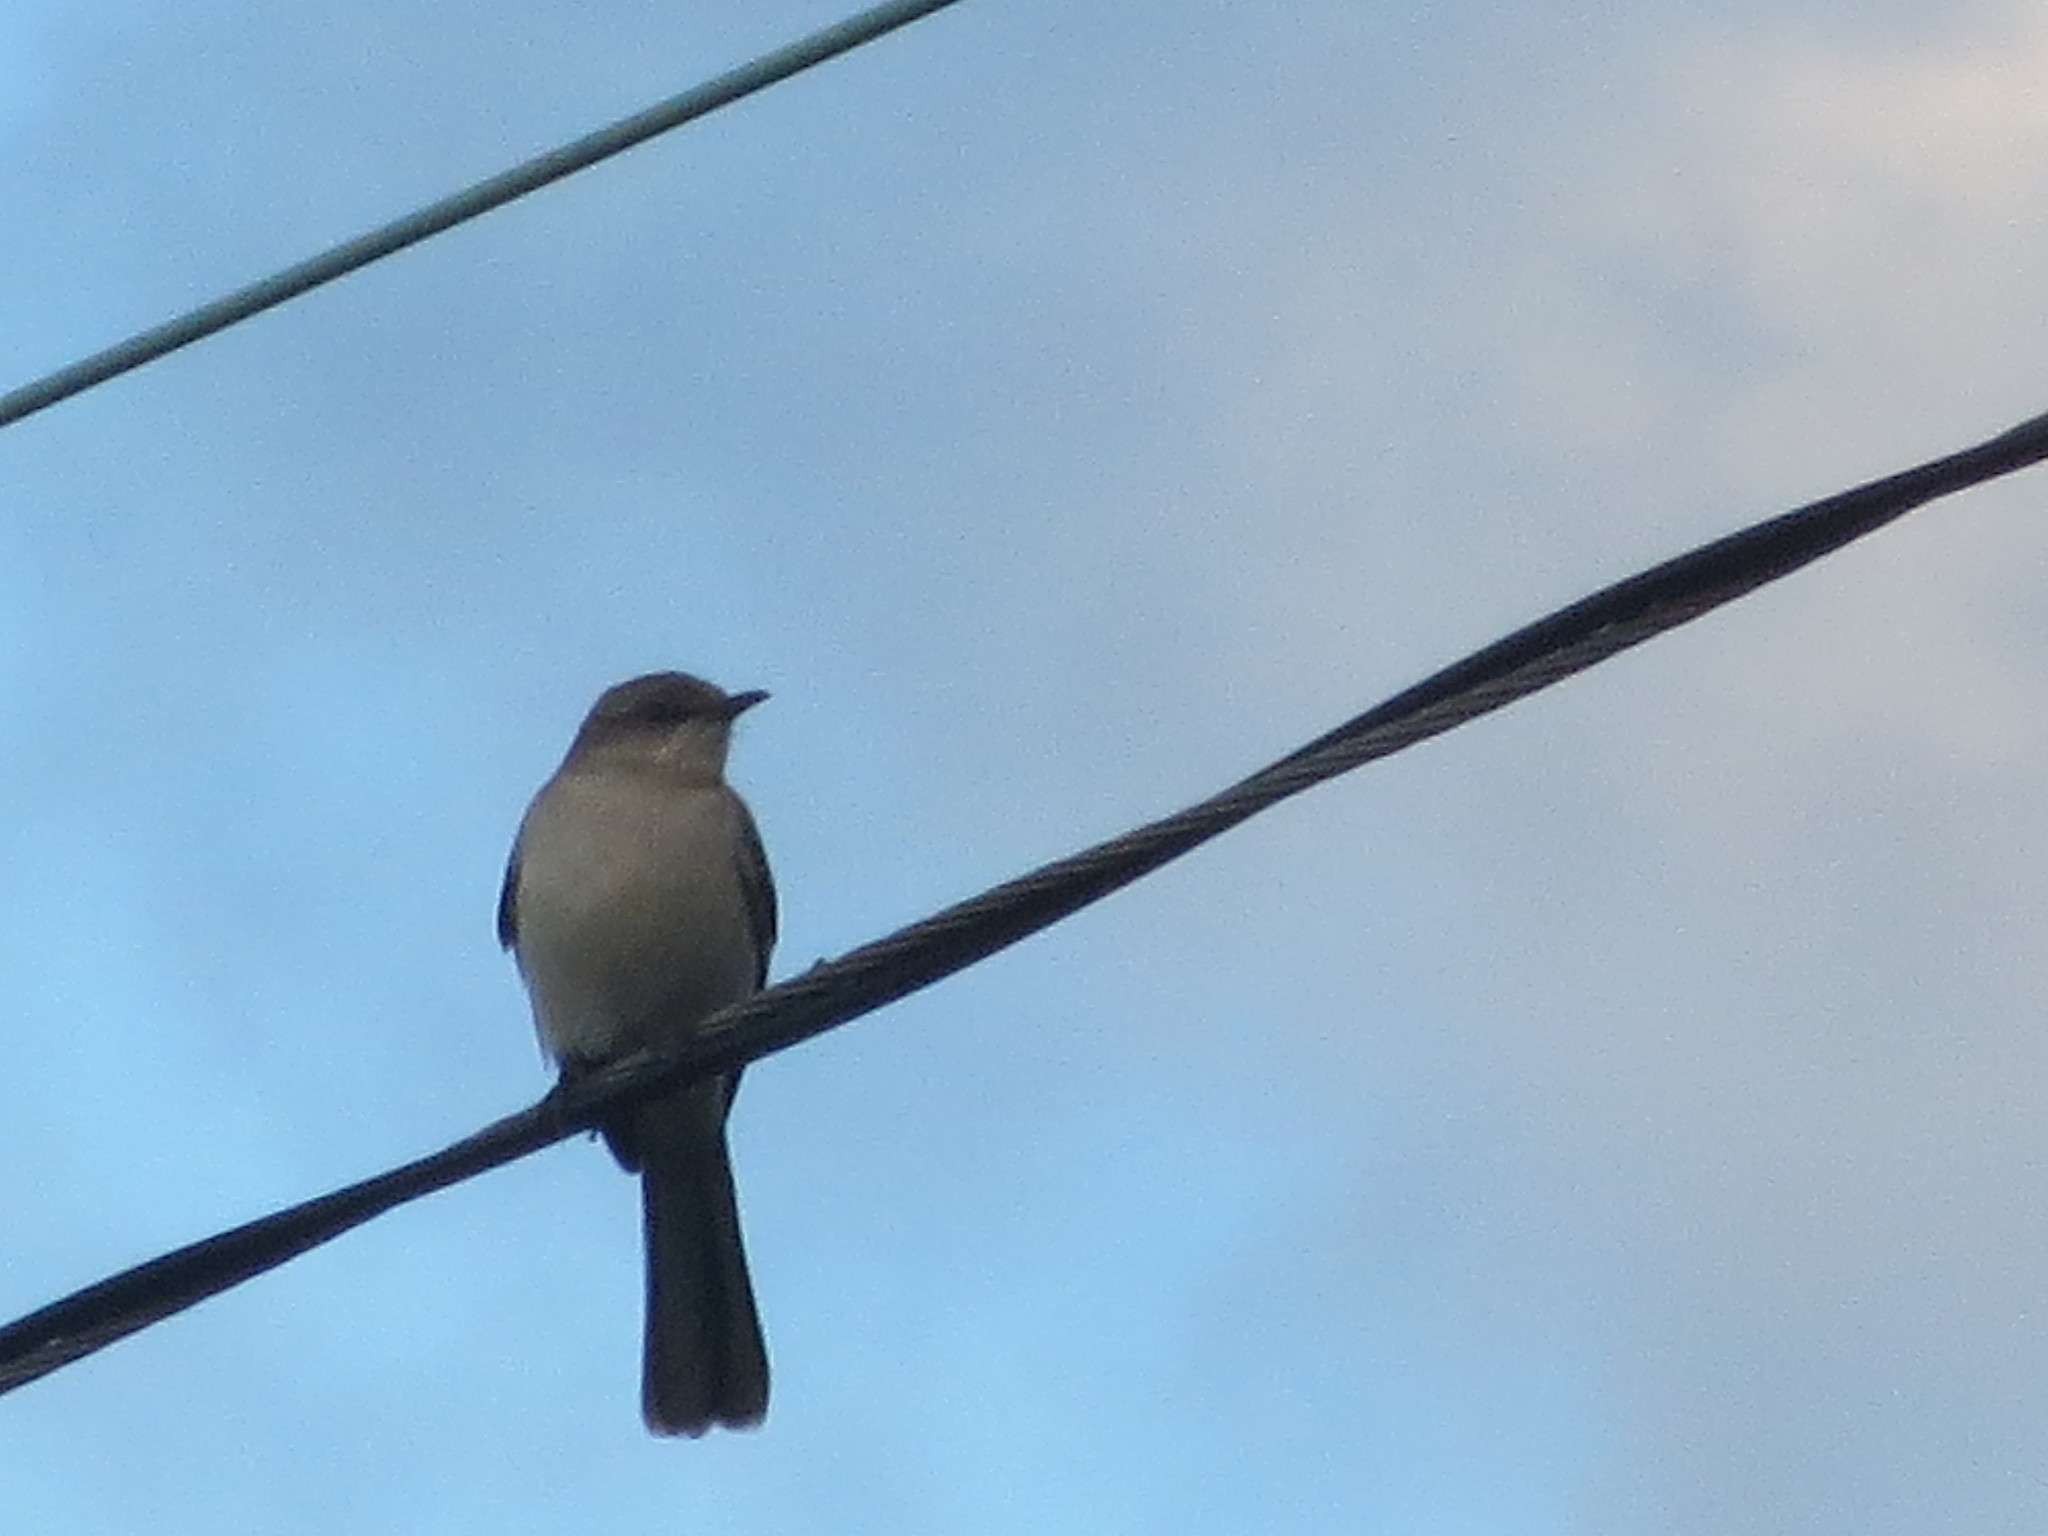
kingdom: Animalia
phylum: Chordata
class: Aves
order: Passeriformes
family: Mimidae
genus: Mimus
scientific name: Mimus polyglottos
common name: Northern mockingbird
